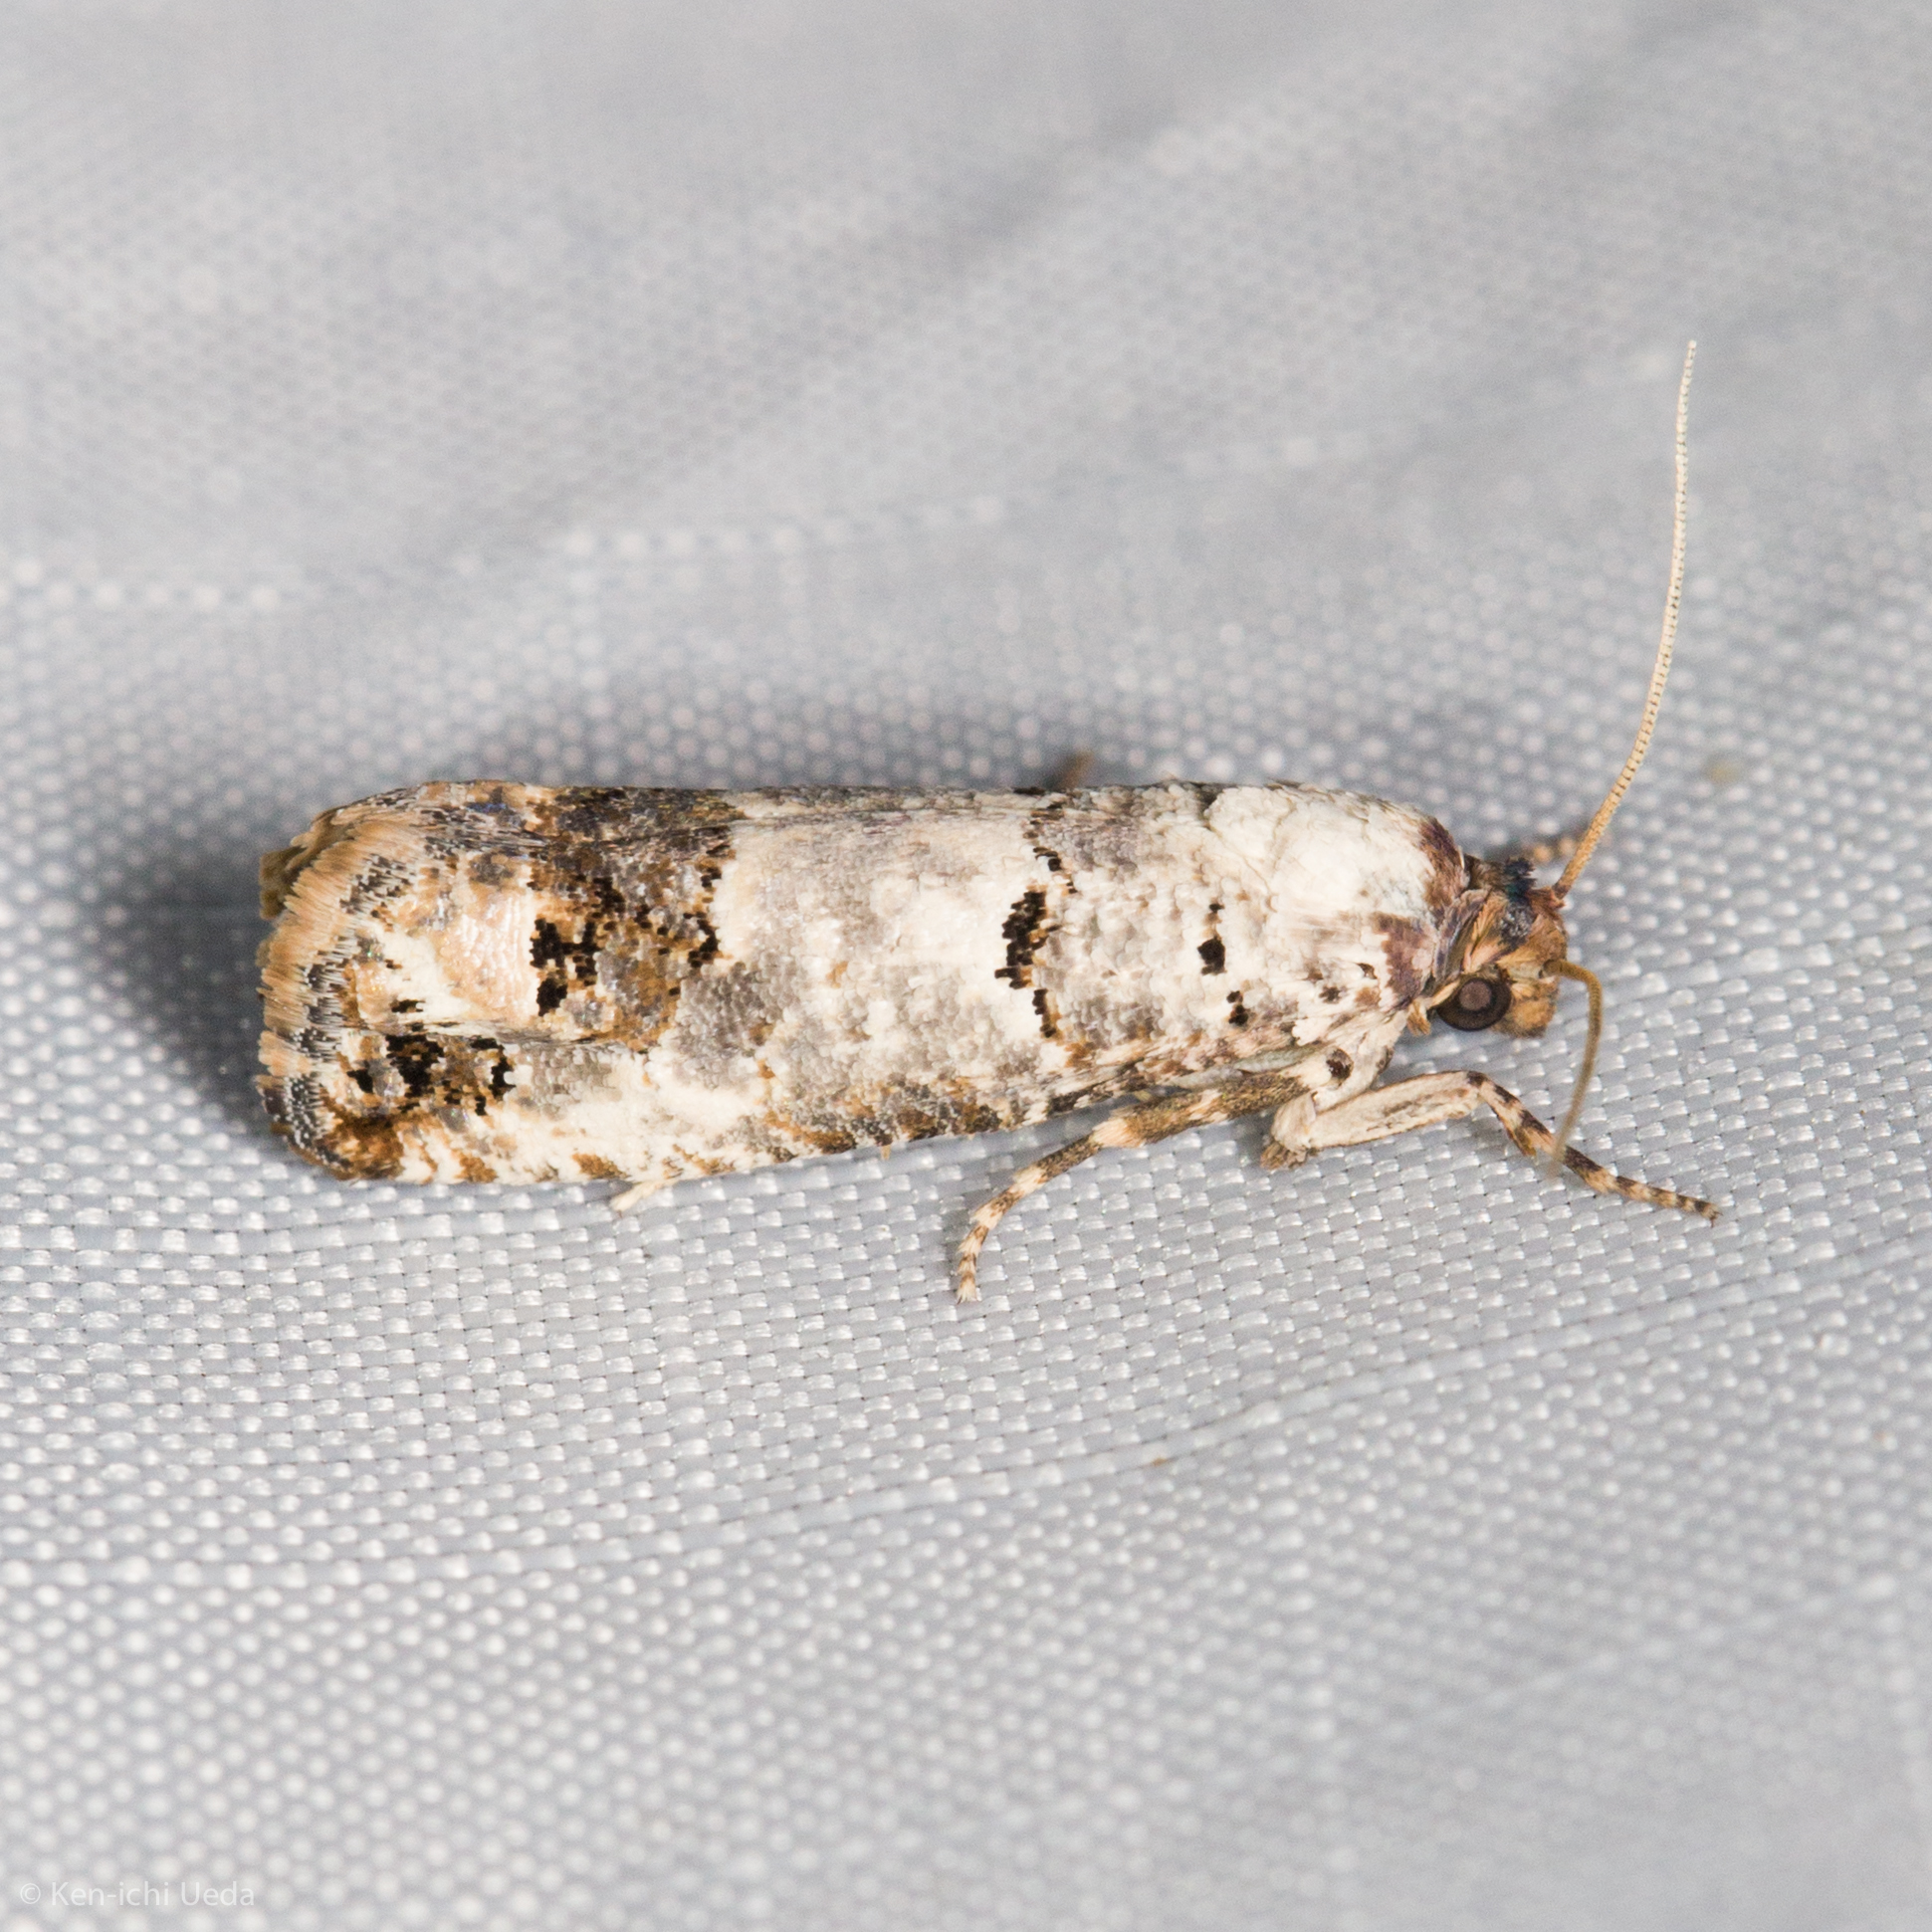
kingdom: Animalia
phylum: Arthropoda
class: Insecta
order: Lepidoptera
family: Tortricidae
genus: Pelochrista
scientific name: Pelochrista eburata
